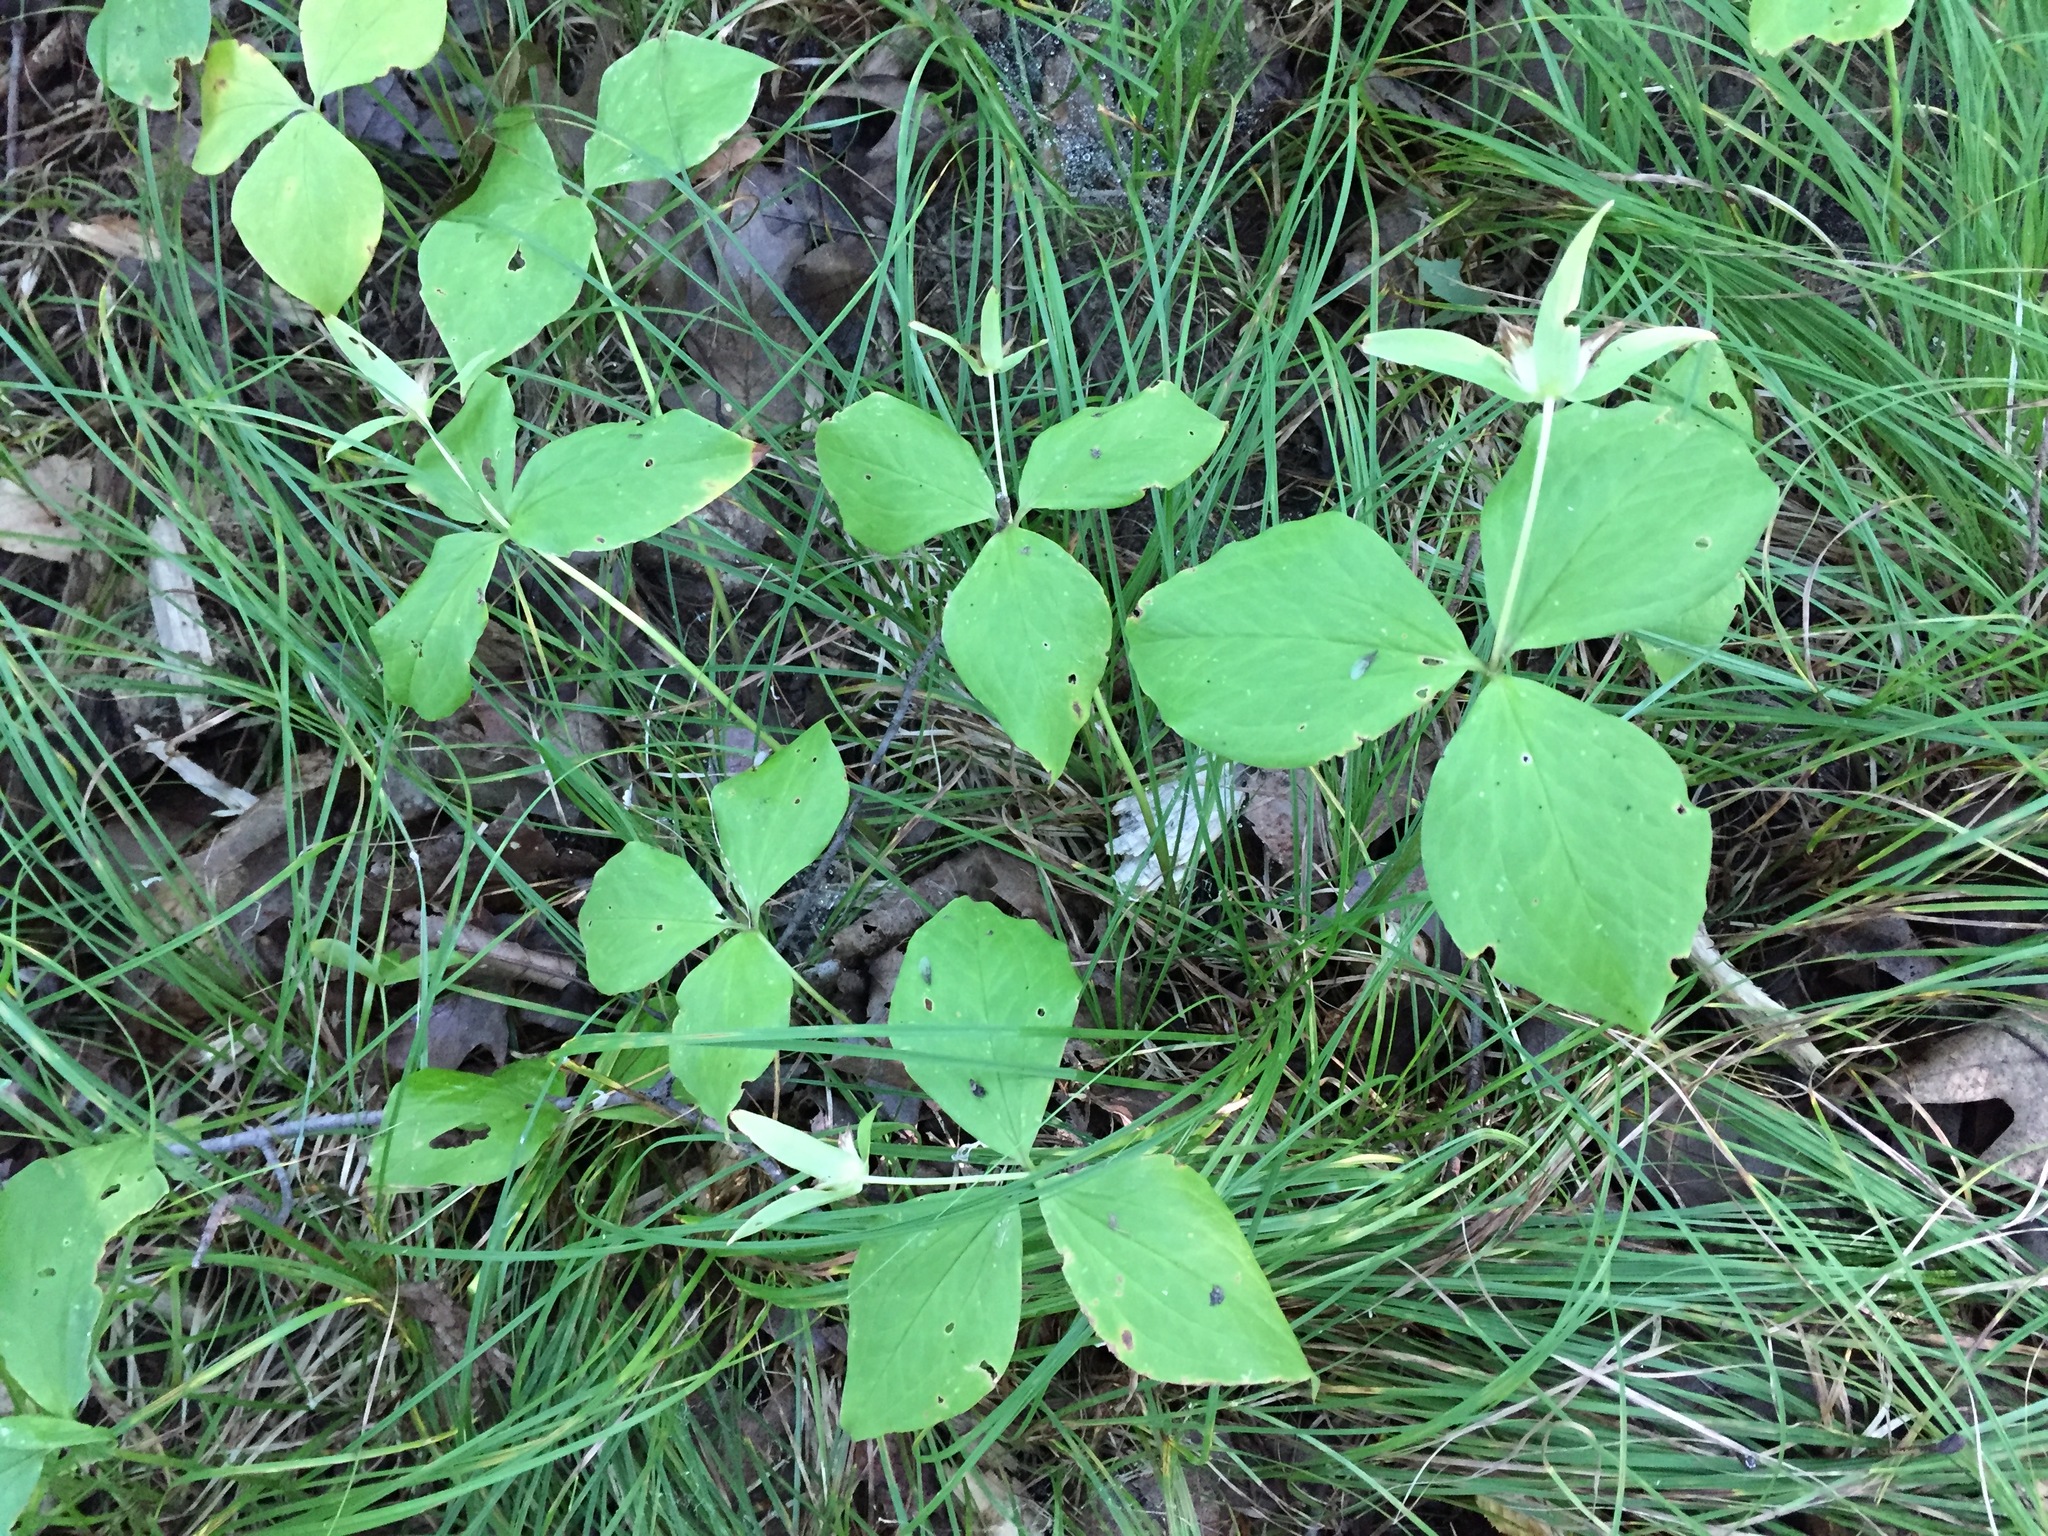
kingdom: Plantae
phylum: Tracheophyta
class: Liliopsida
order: Liliales
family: Melanthiaceae
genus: Trillium
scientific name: Trillium grandiflorum
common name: Great white trillium
